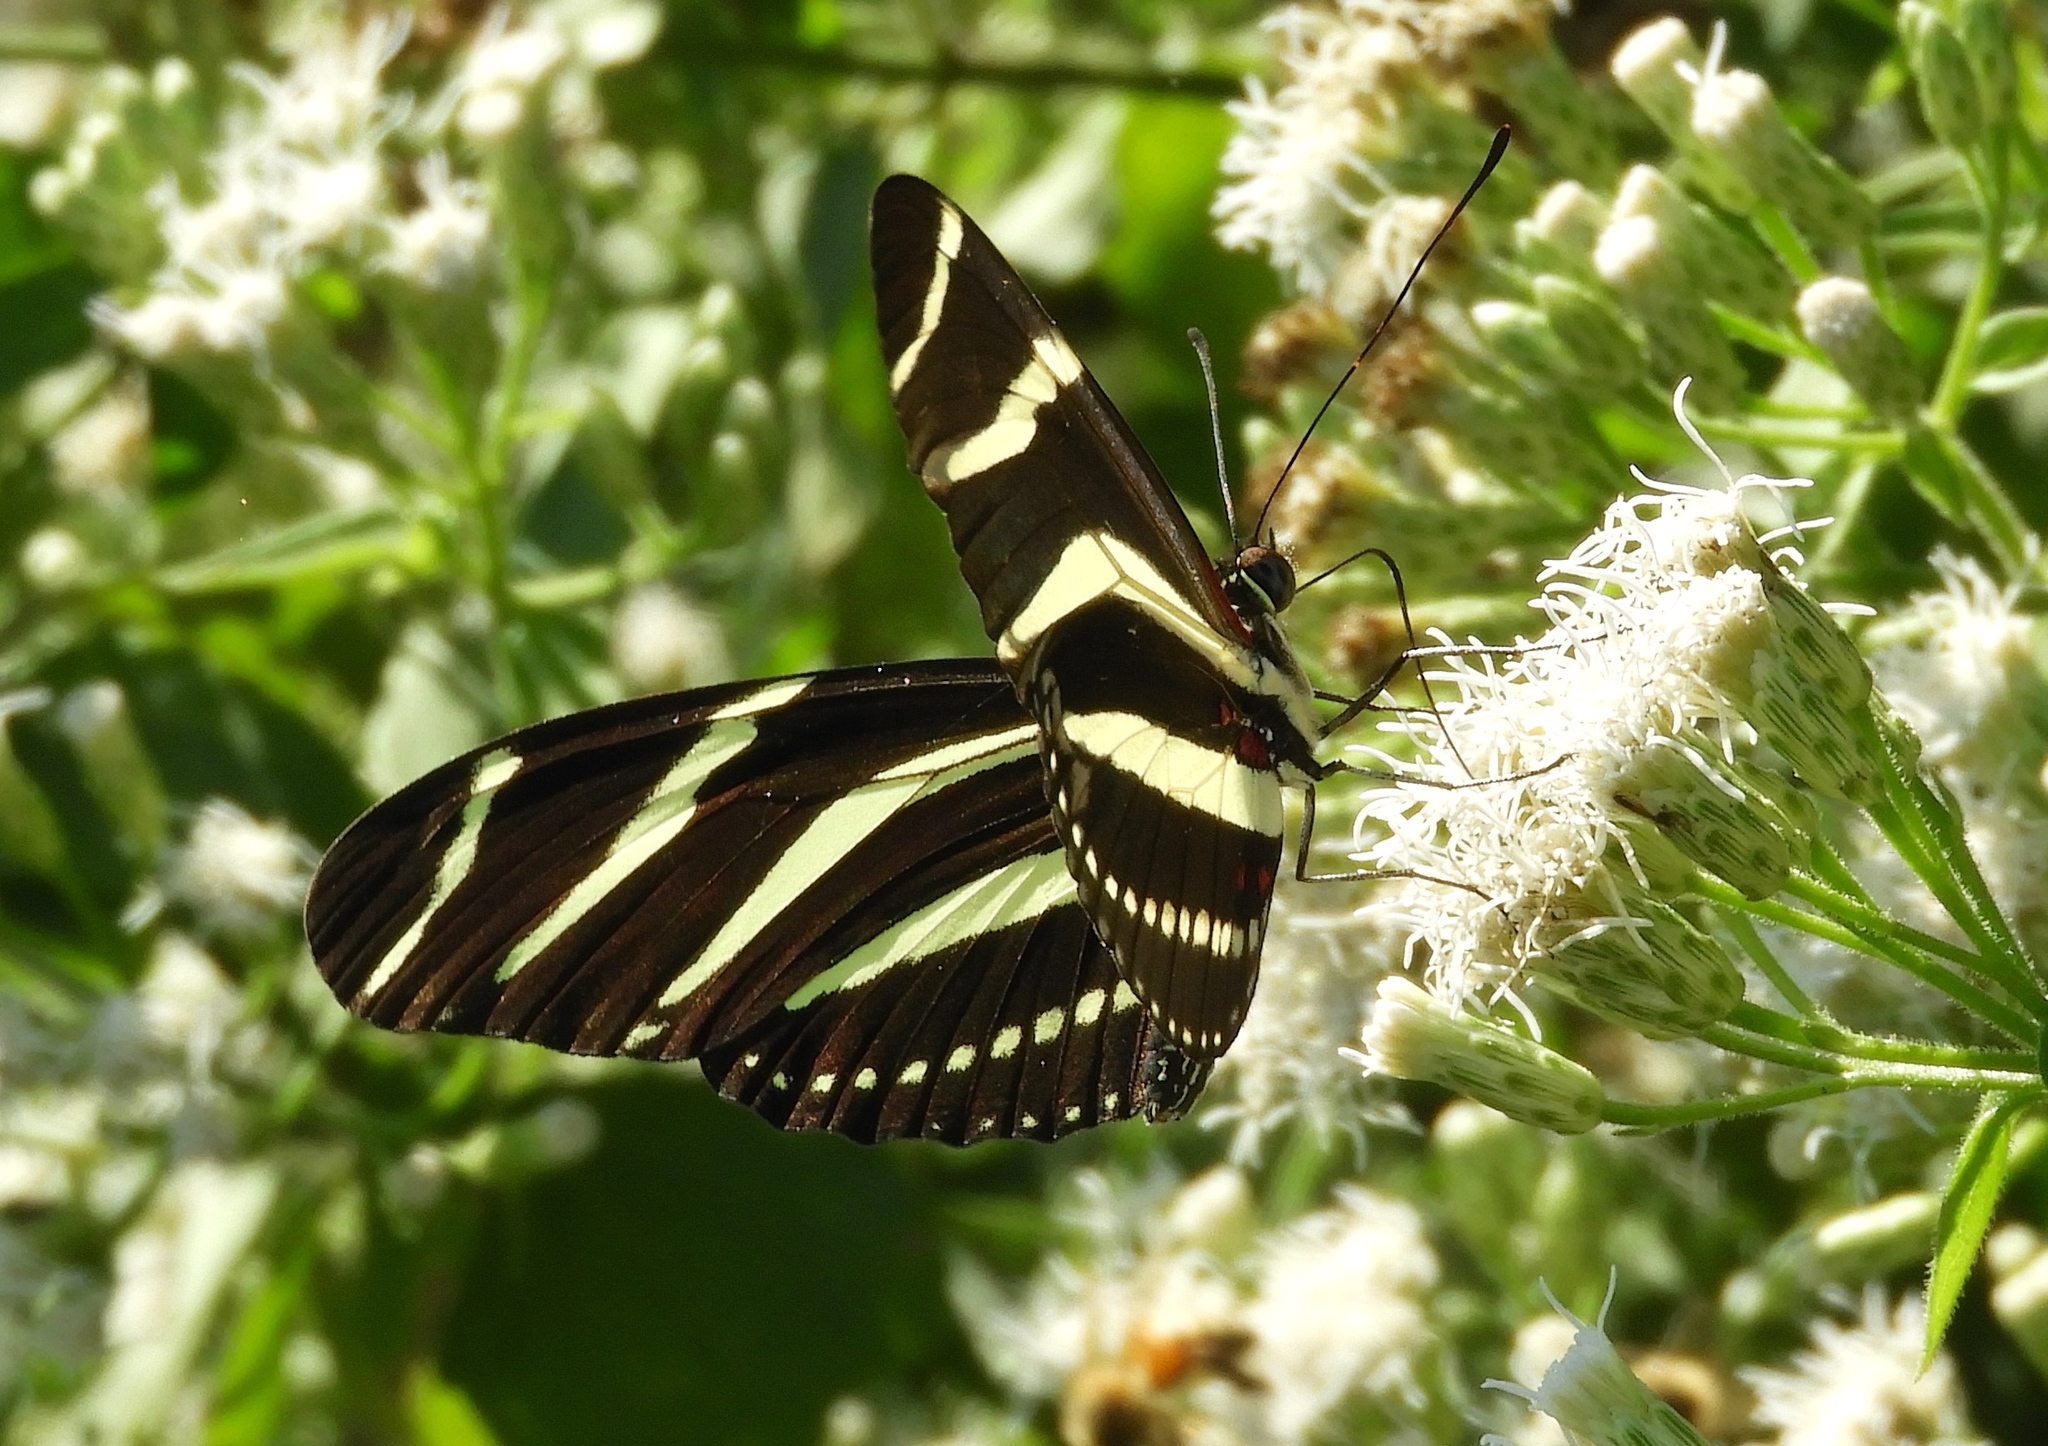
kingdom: Animalia
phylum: Arthropoda
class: Insecta
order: Lepidoptera
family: Nymphalidae
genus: Heliconius
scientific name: Heliconius charithonia
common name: Zebra long wing
